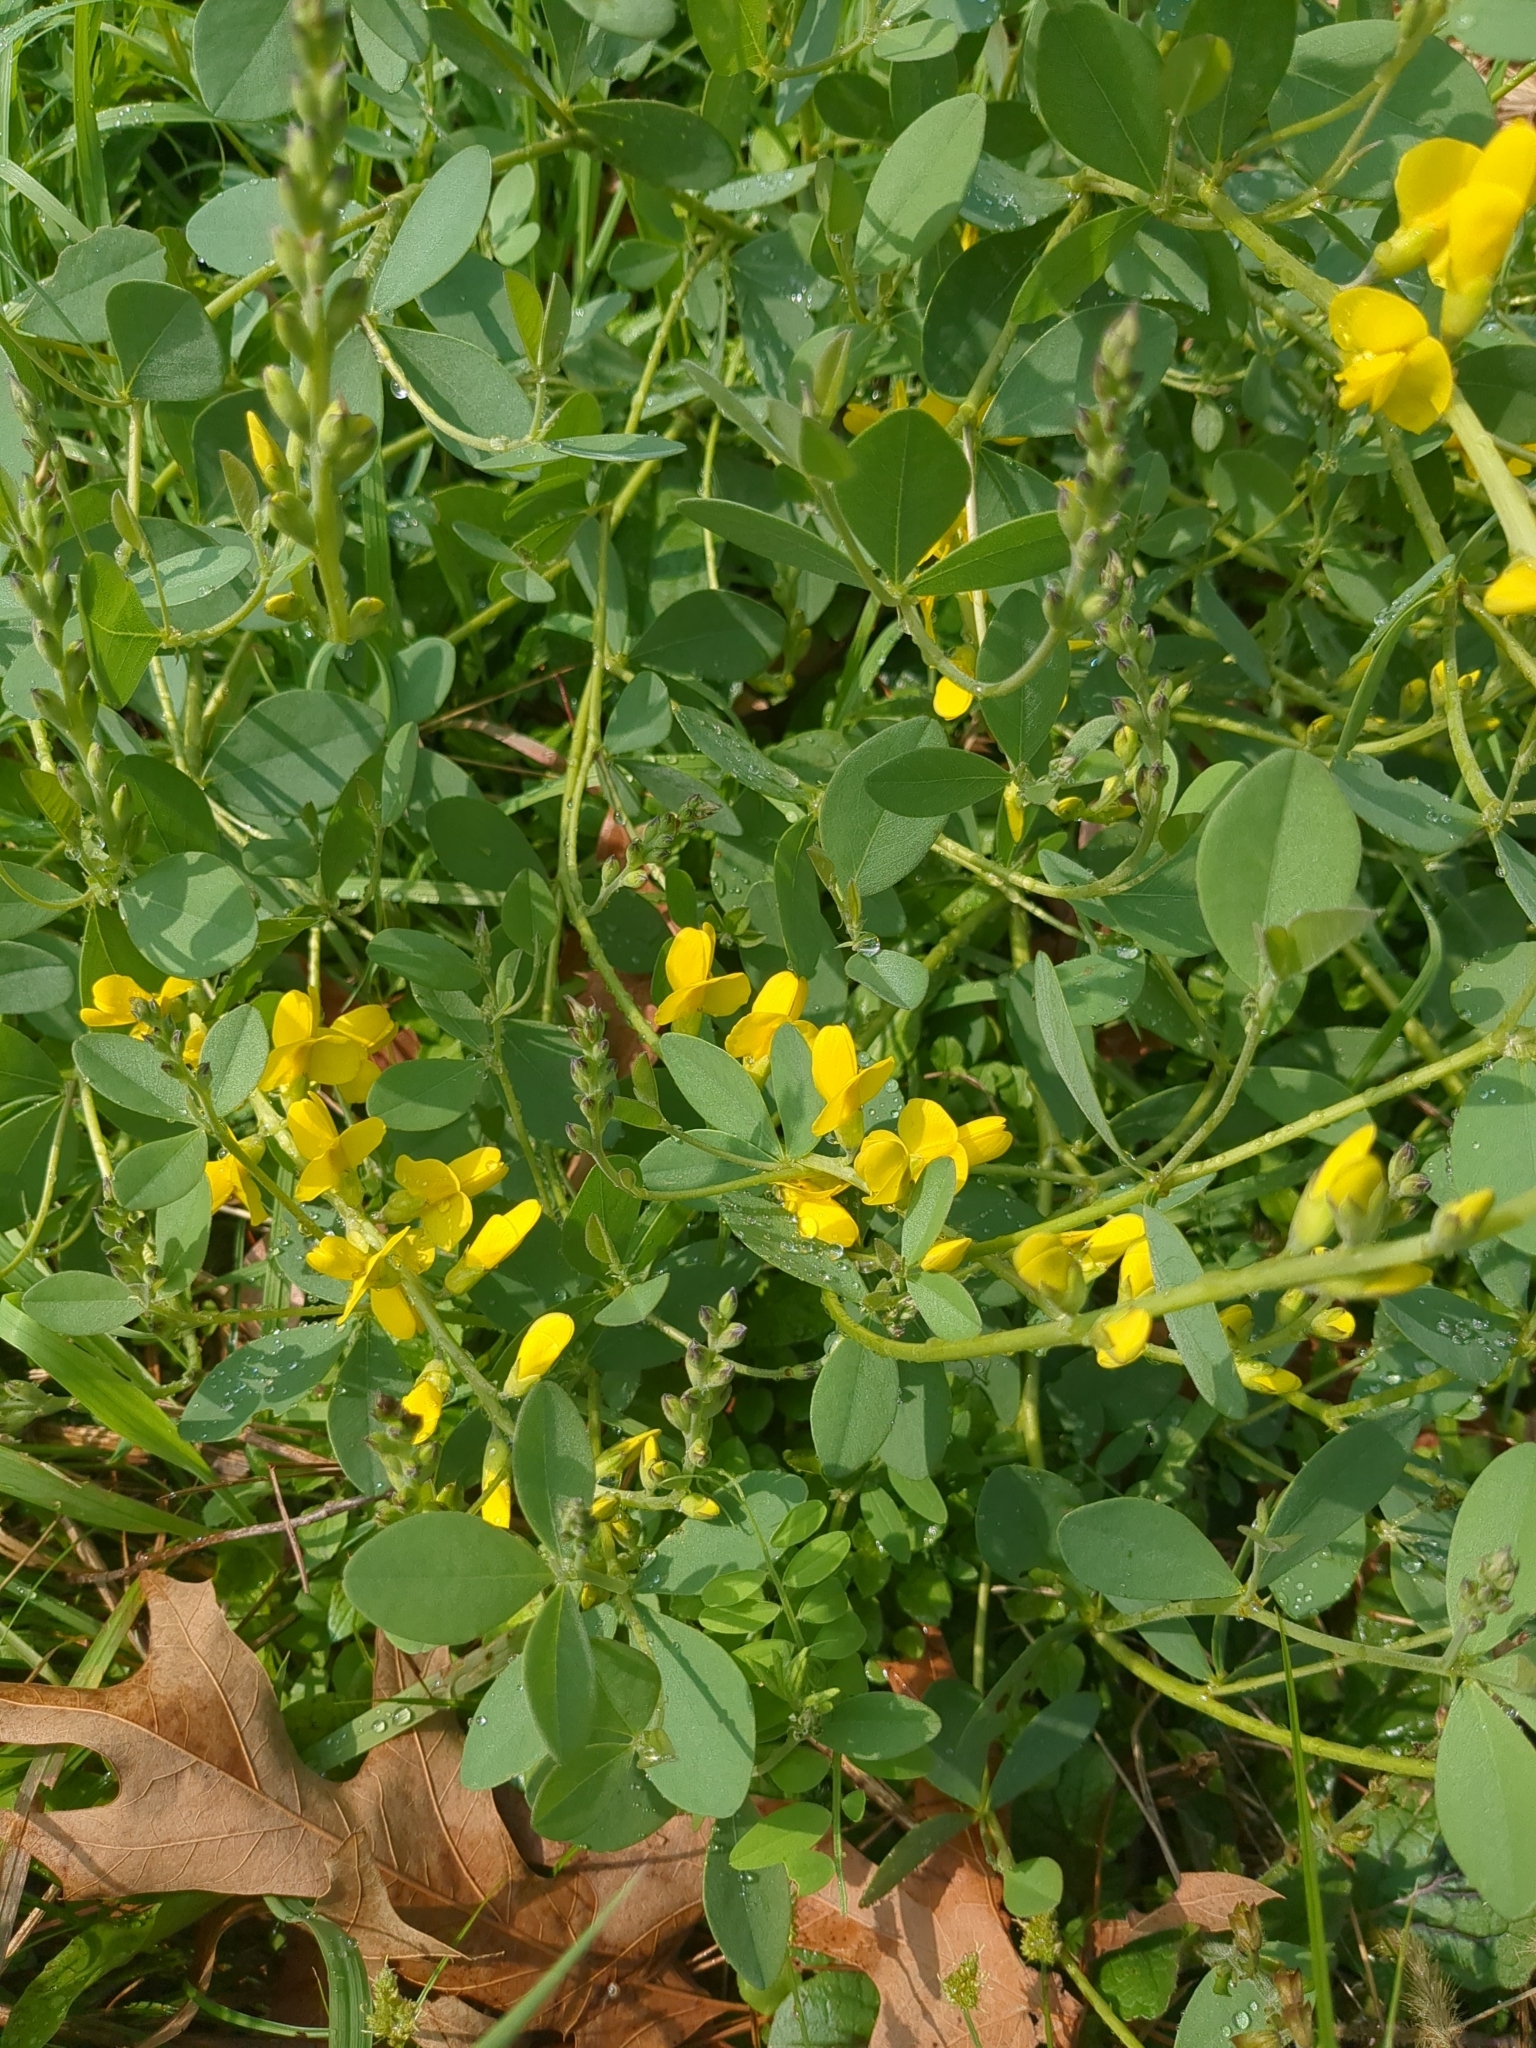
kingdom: Plantae
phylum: Tracheophyta
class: Magnoliopsida
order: Fabales
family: Fabaceae
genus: Baptisia
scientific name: Baptisia sphaerocarpa
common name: Round wild indigo
